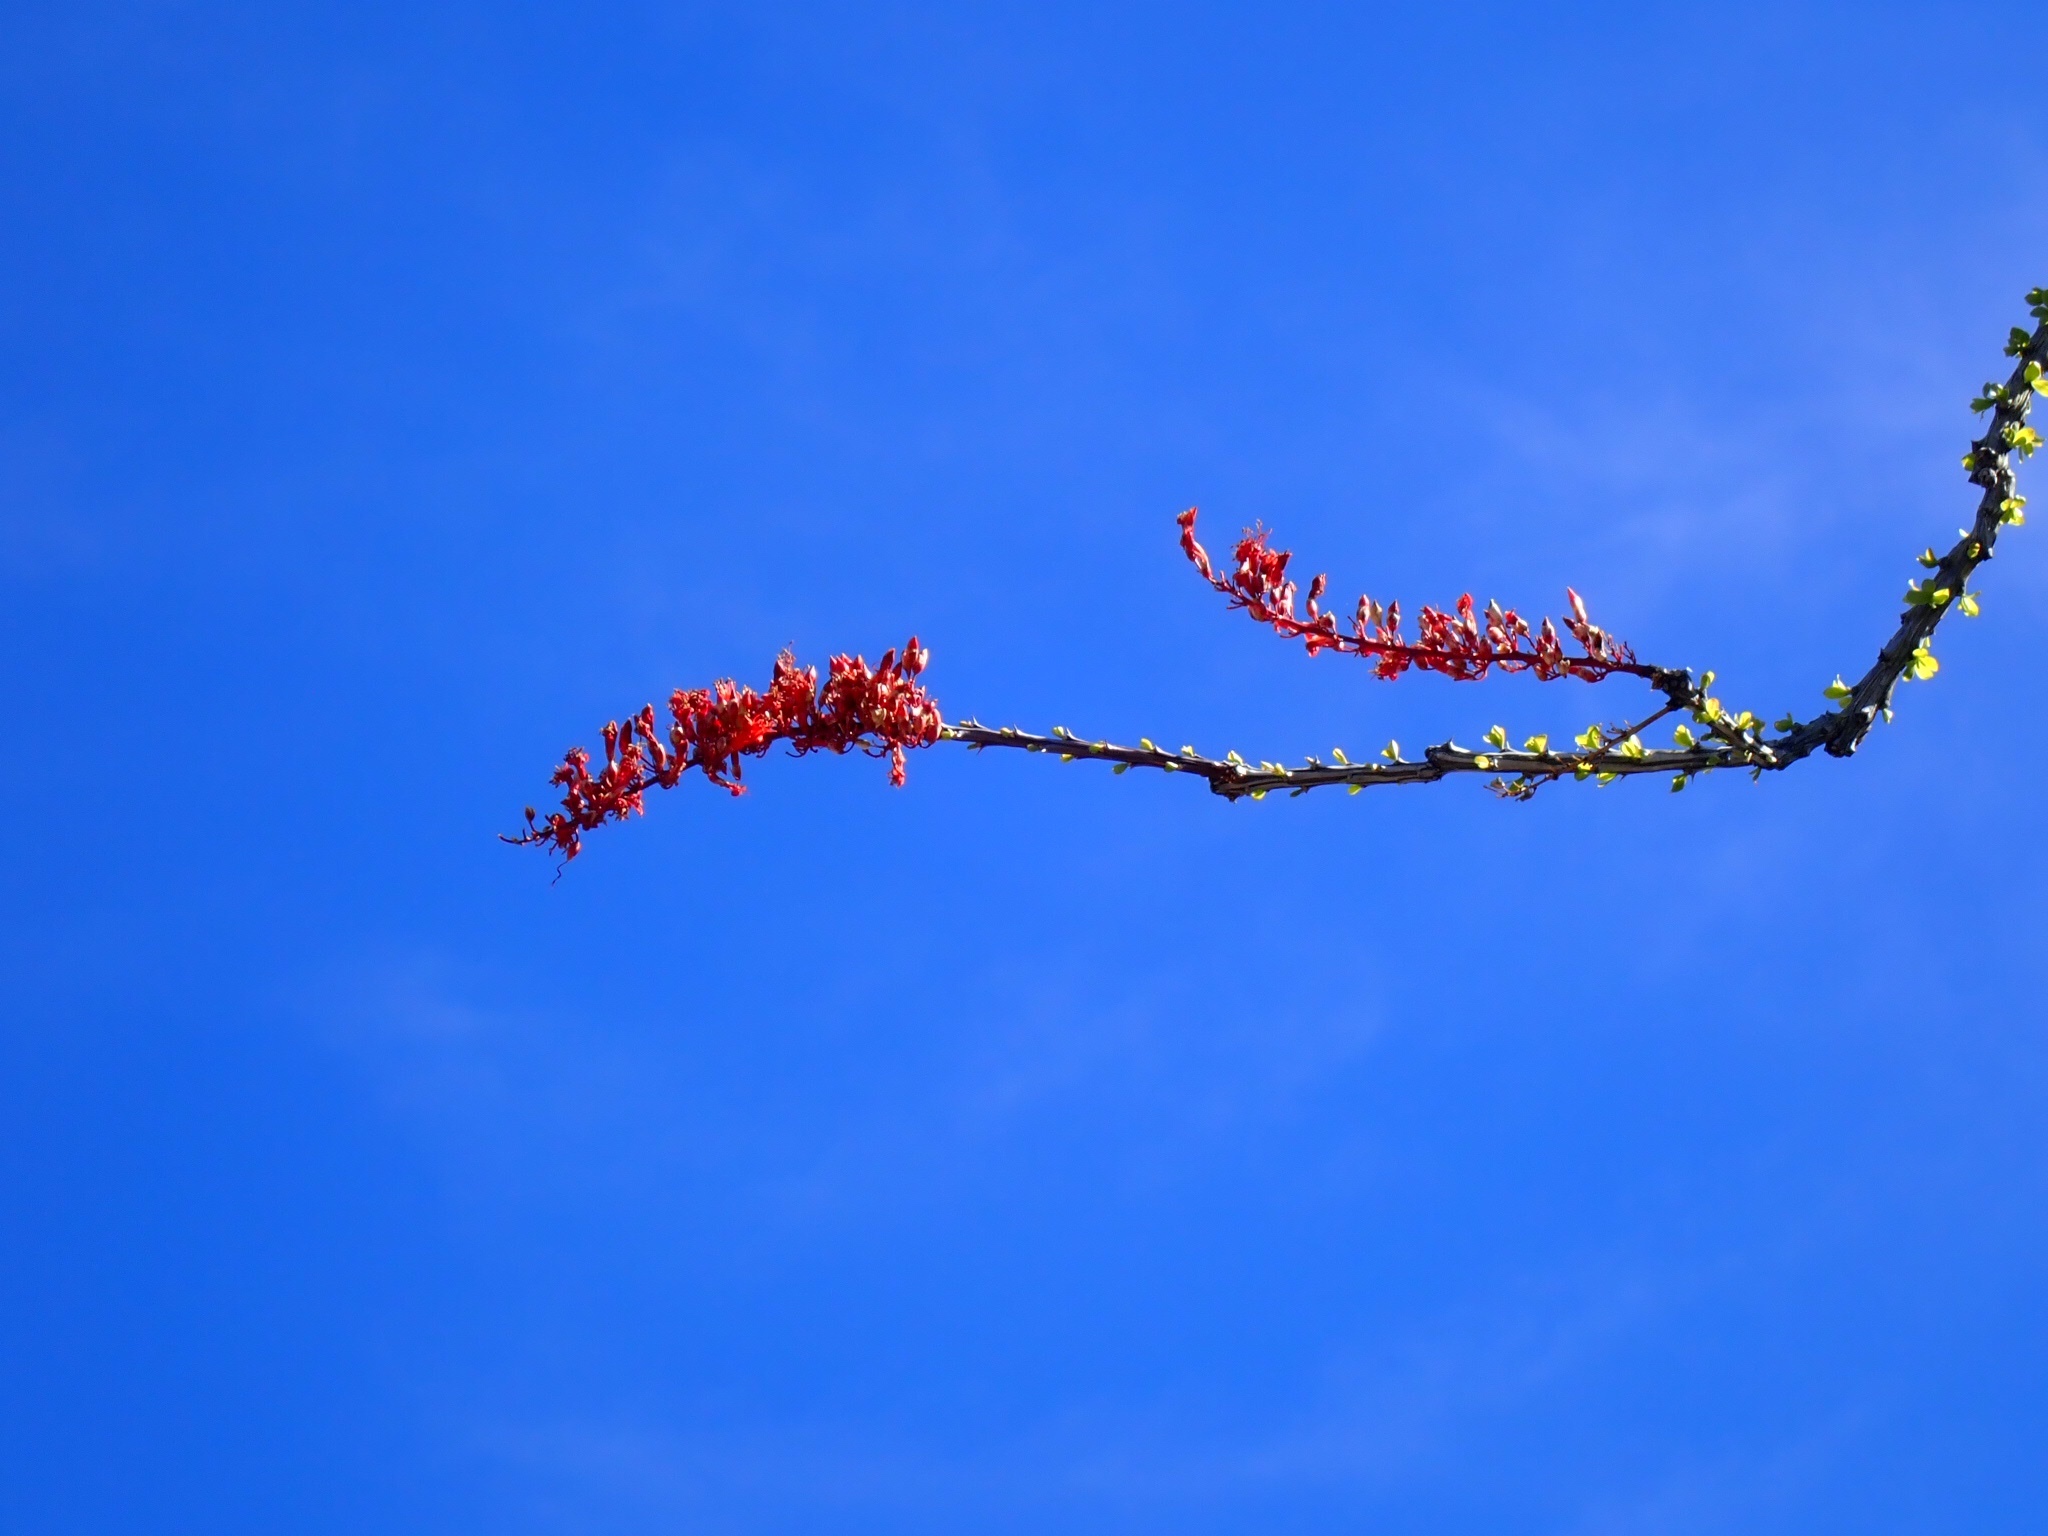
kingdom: Plantae
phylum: Tracheophyta
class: Magnoliopsida
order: Ericales
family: Fouquieriaceae
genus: Fouquieria
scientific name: Fouquieria splendens
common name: Vine-cactus
